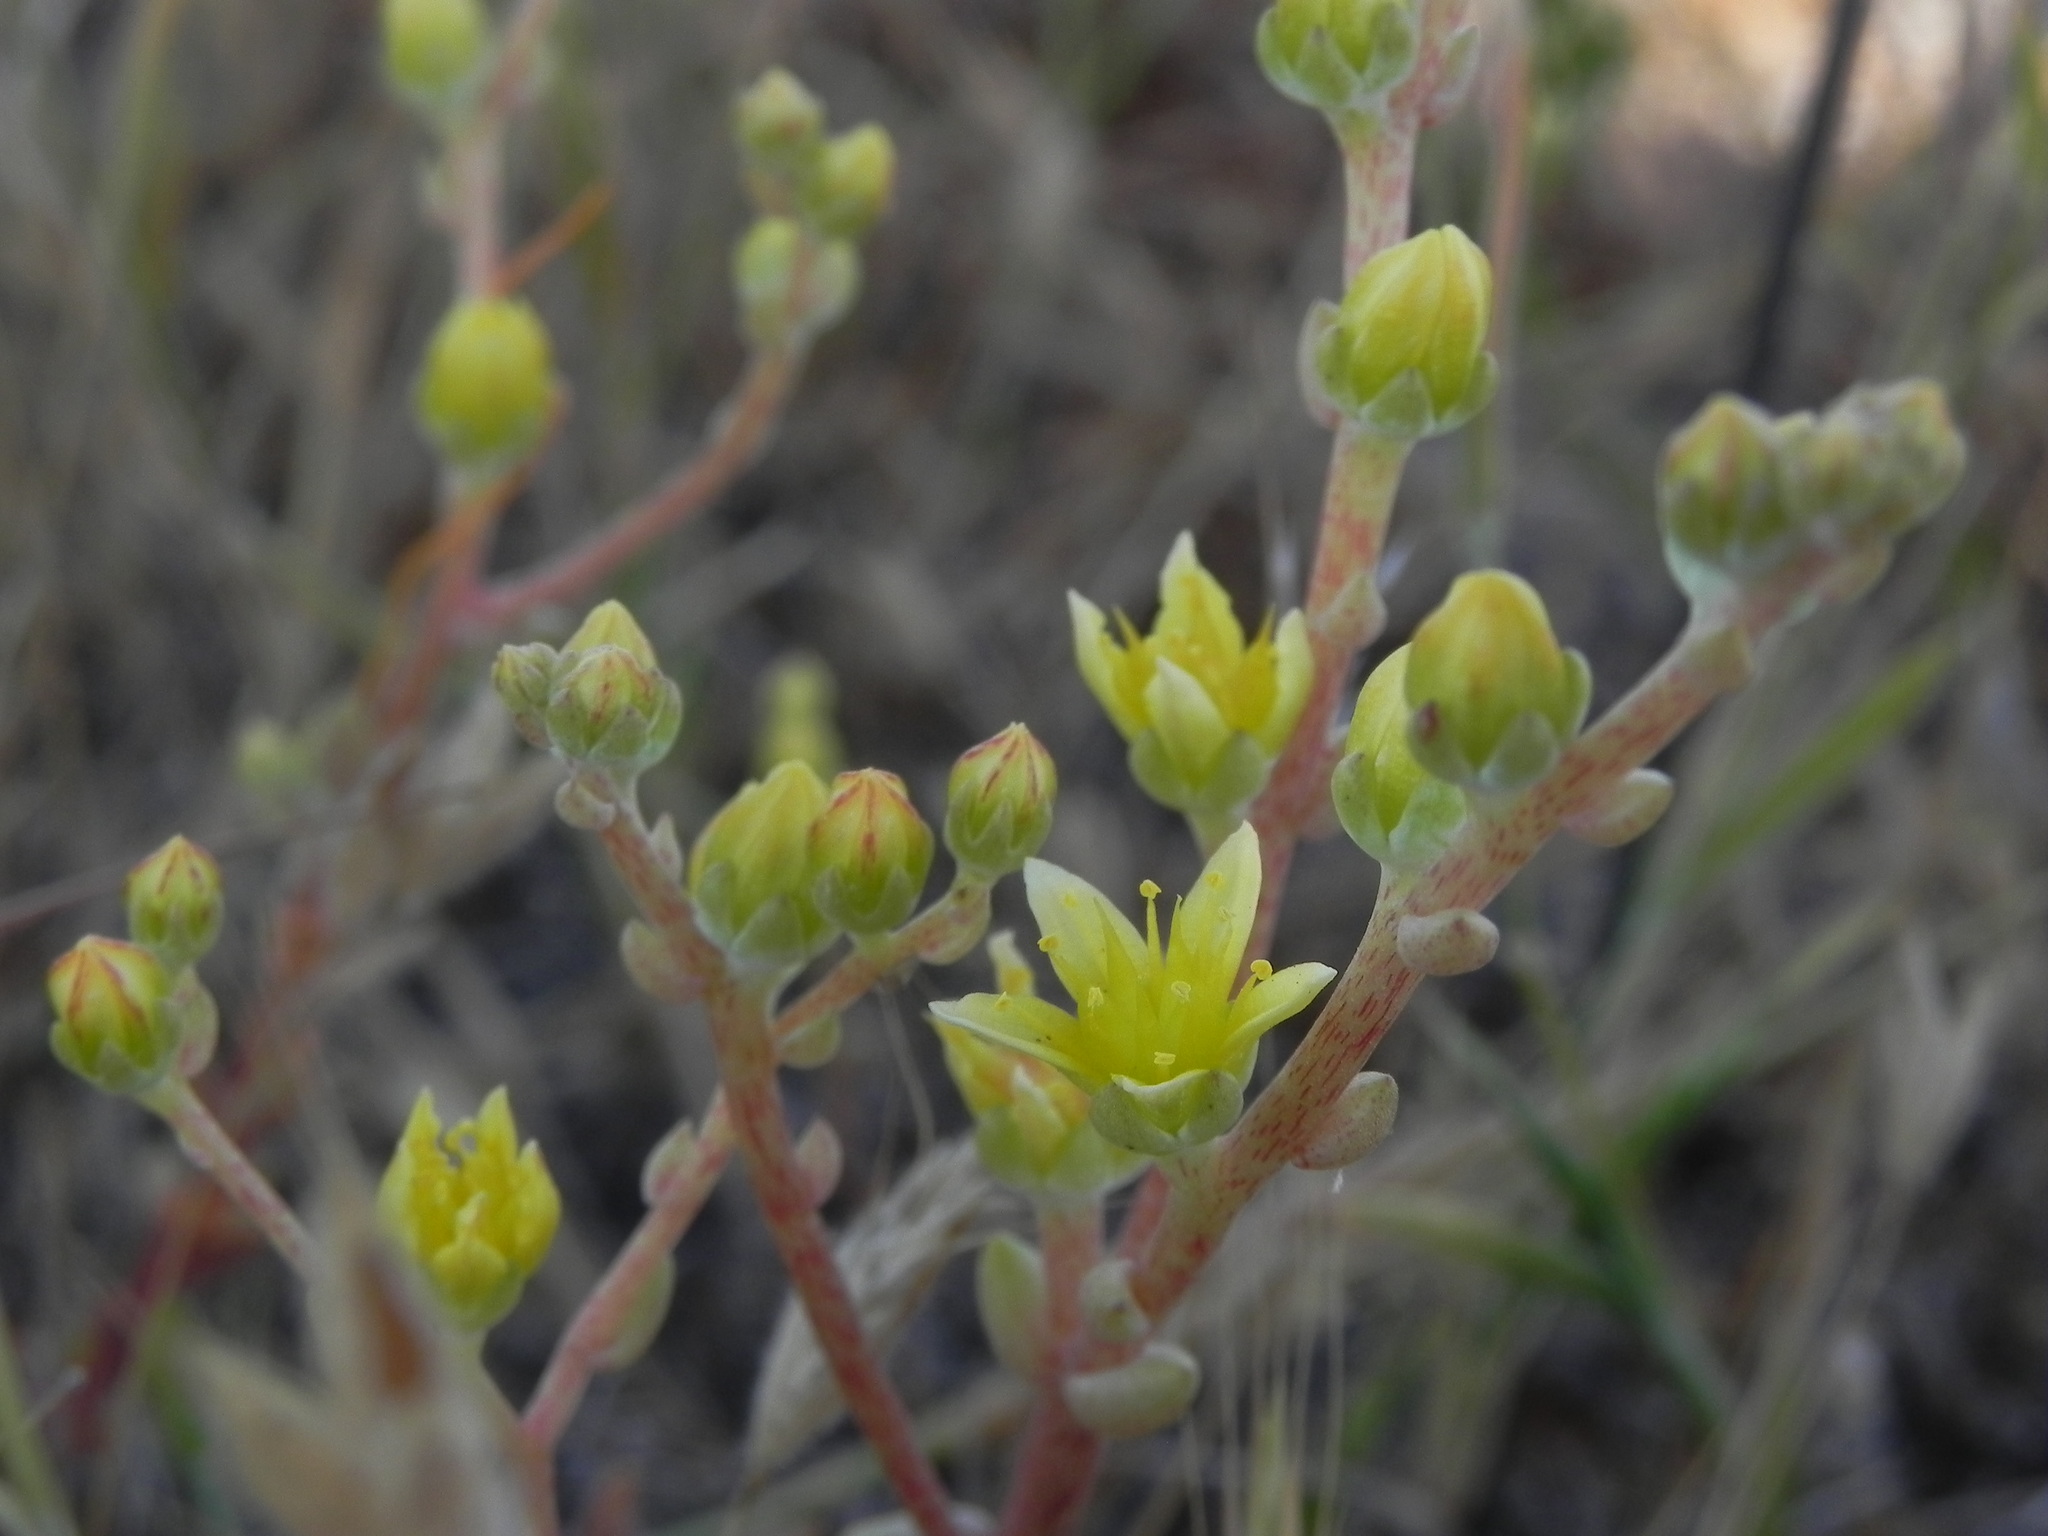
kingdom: Plantae
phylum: Tracheophyta
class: Magnoliopsida
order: Saxifragales
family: Crassulaceae
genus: Dudleya
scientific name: Dudleya variegata
